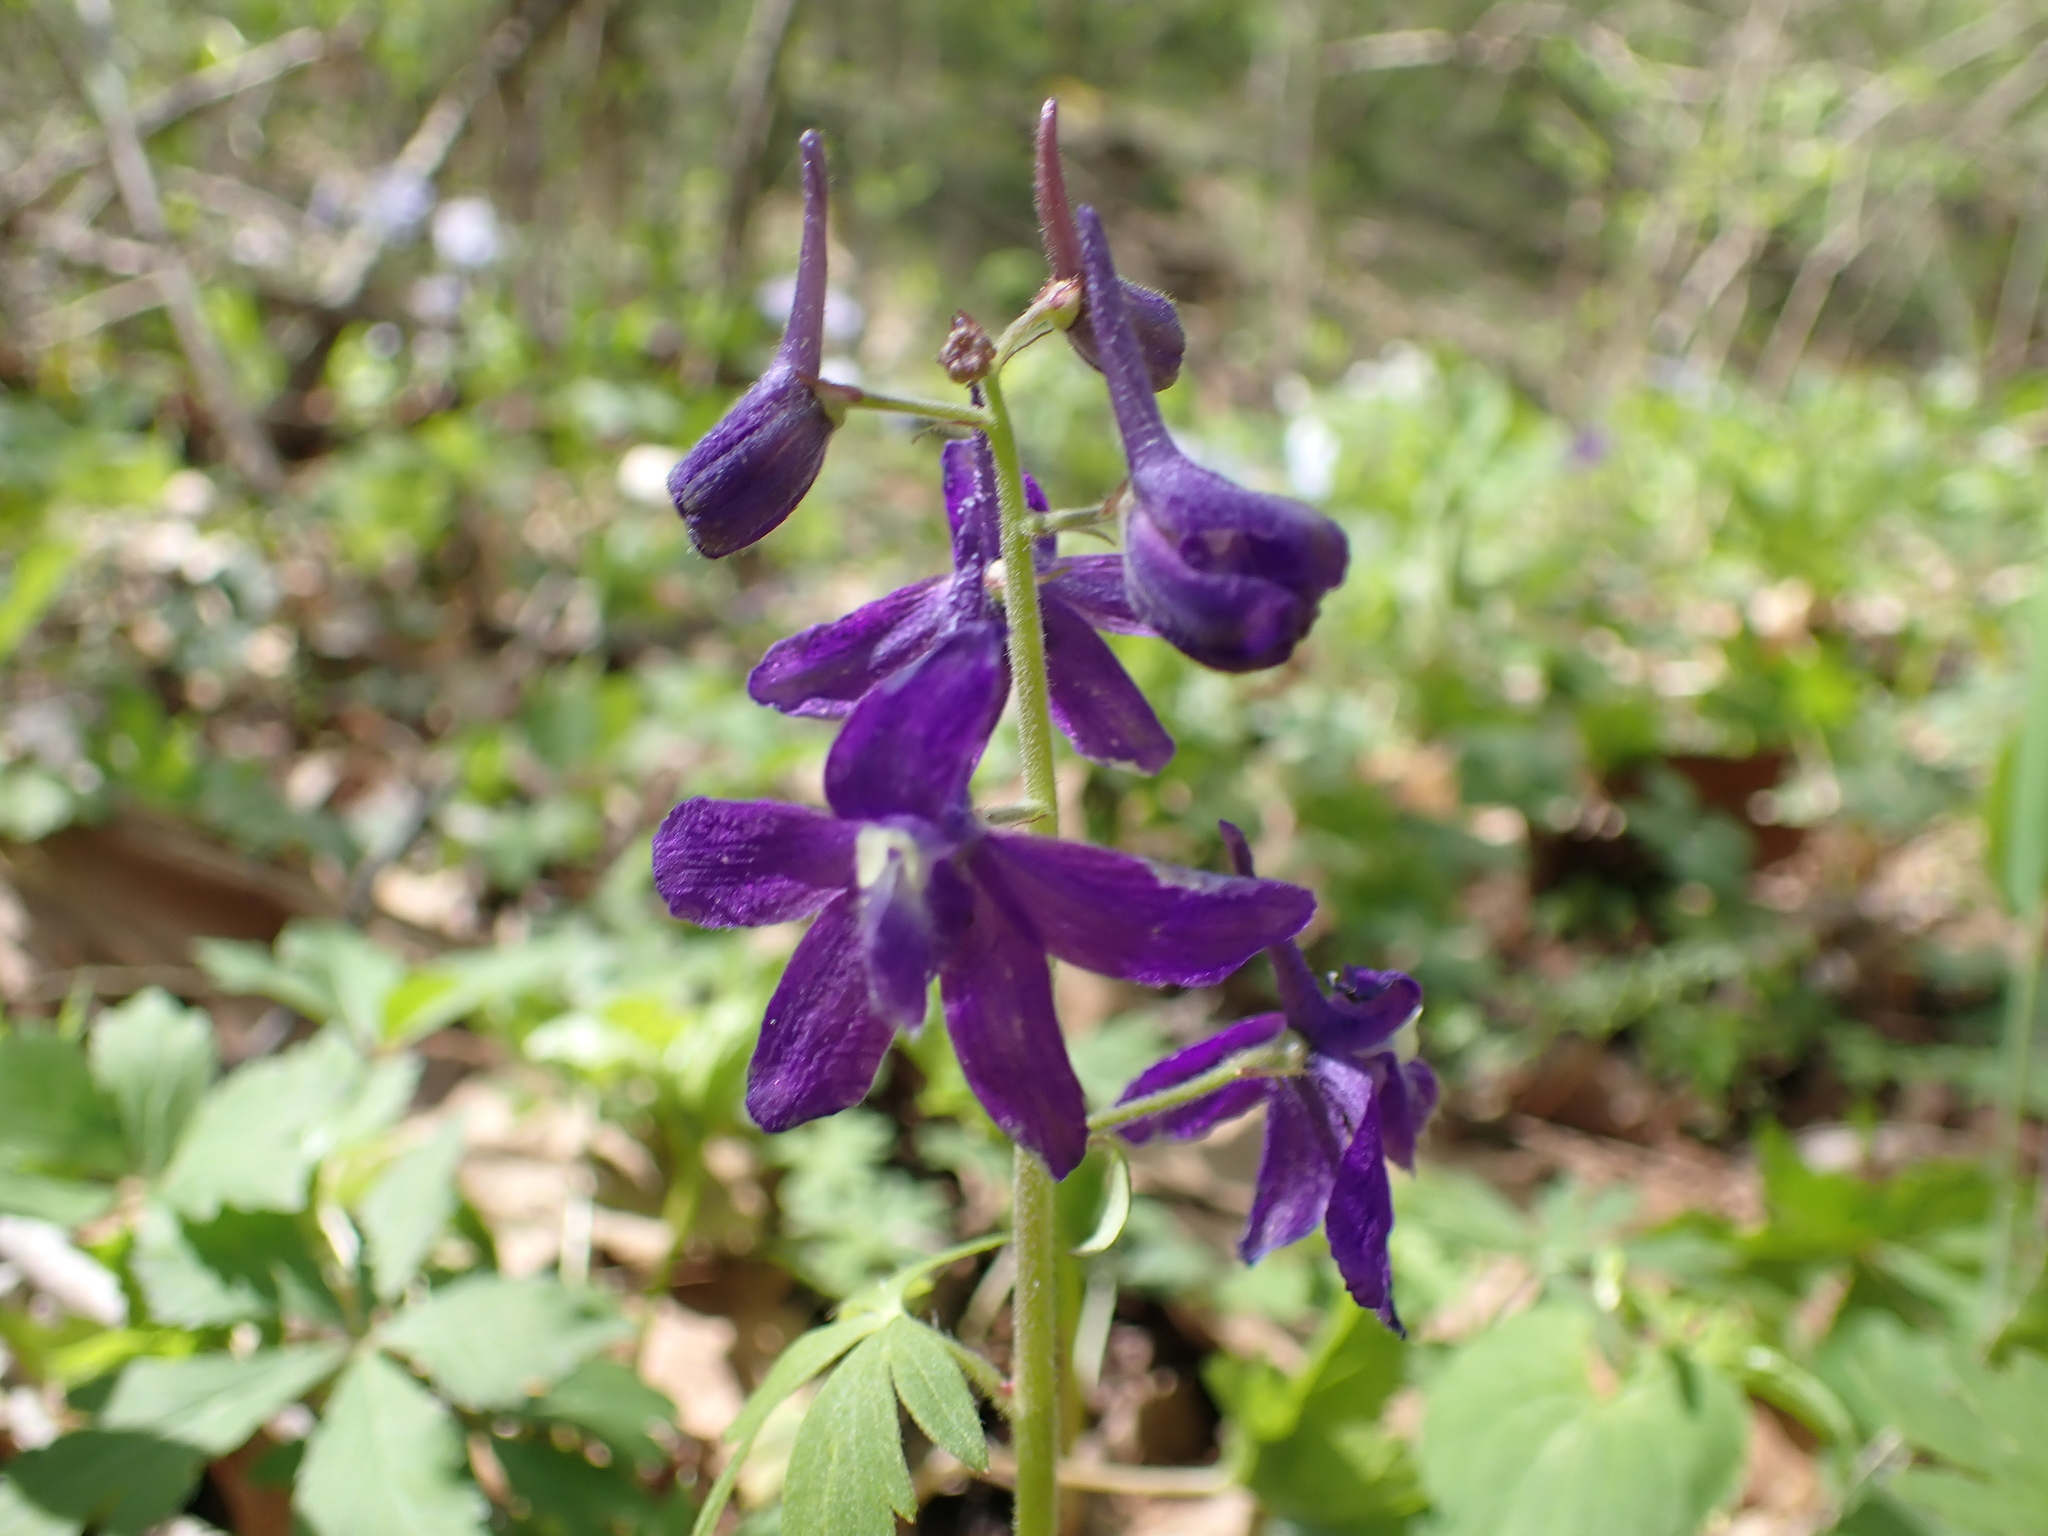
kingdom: Plantae
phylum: Tracheophyta
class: Magnoliopsida
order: Ranunculales
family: Ranunculaceae
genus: Delphinium
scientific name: Delphinium tricorne
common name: Dwarf larkspur
